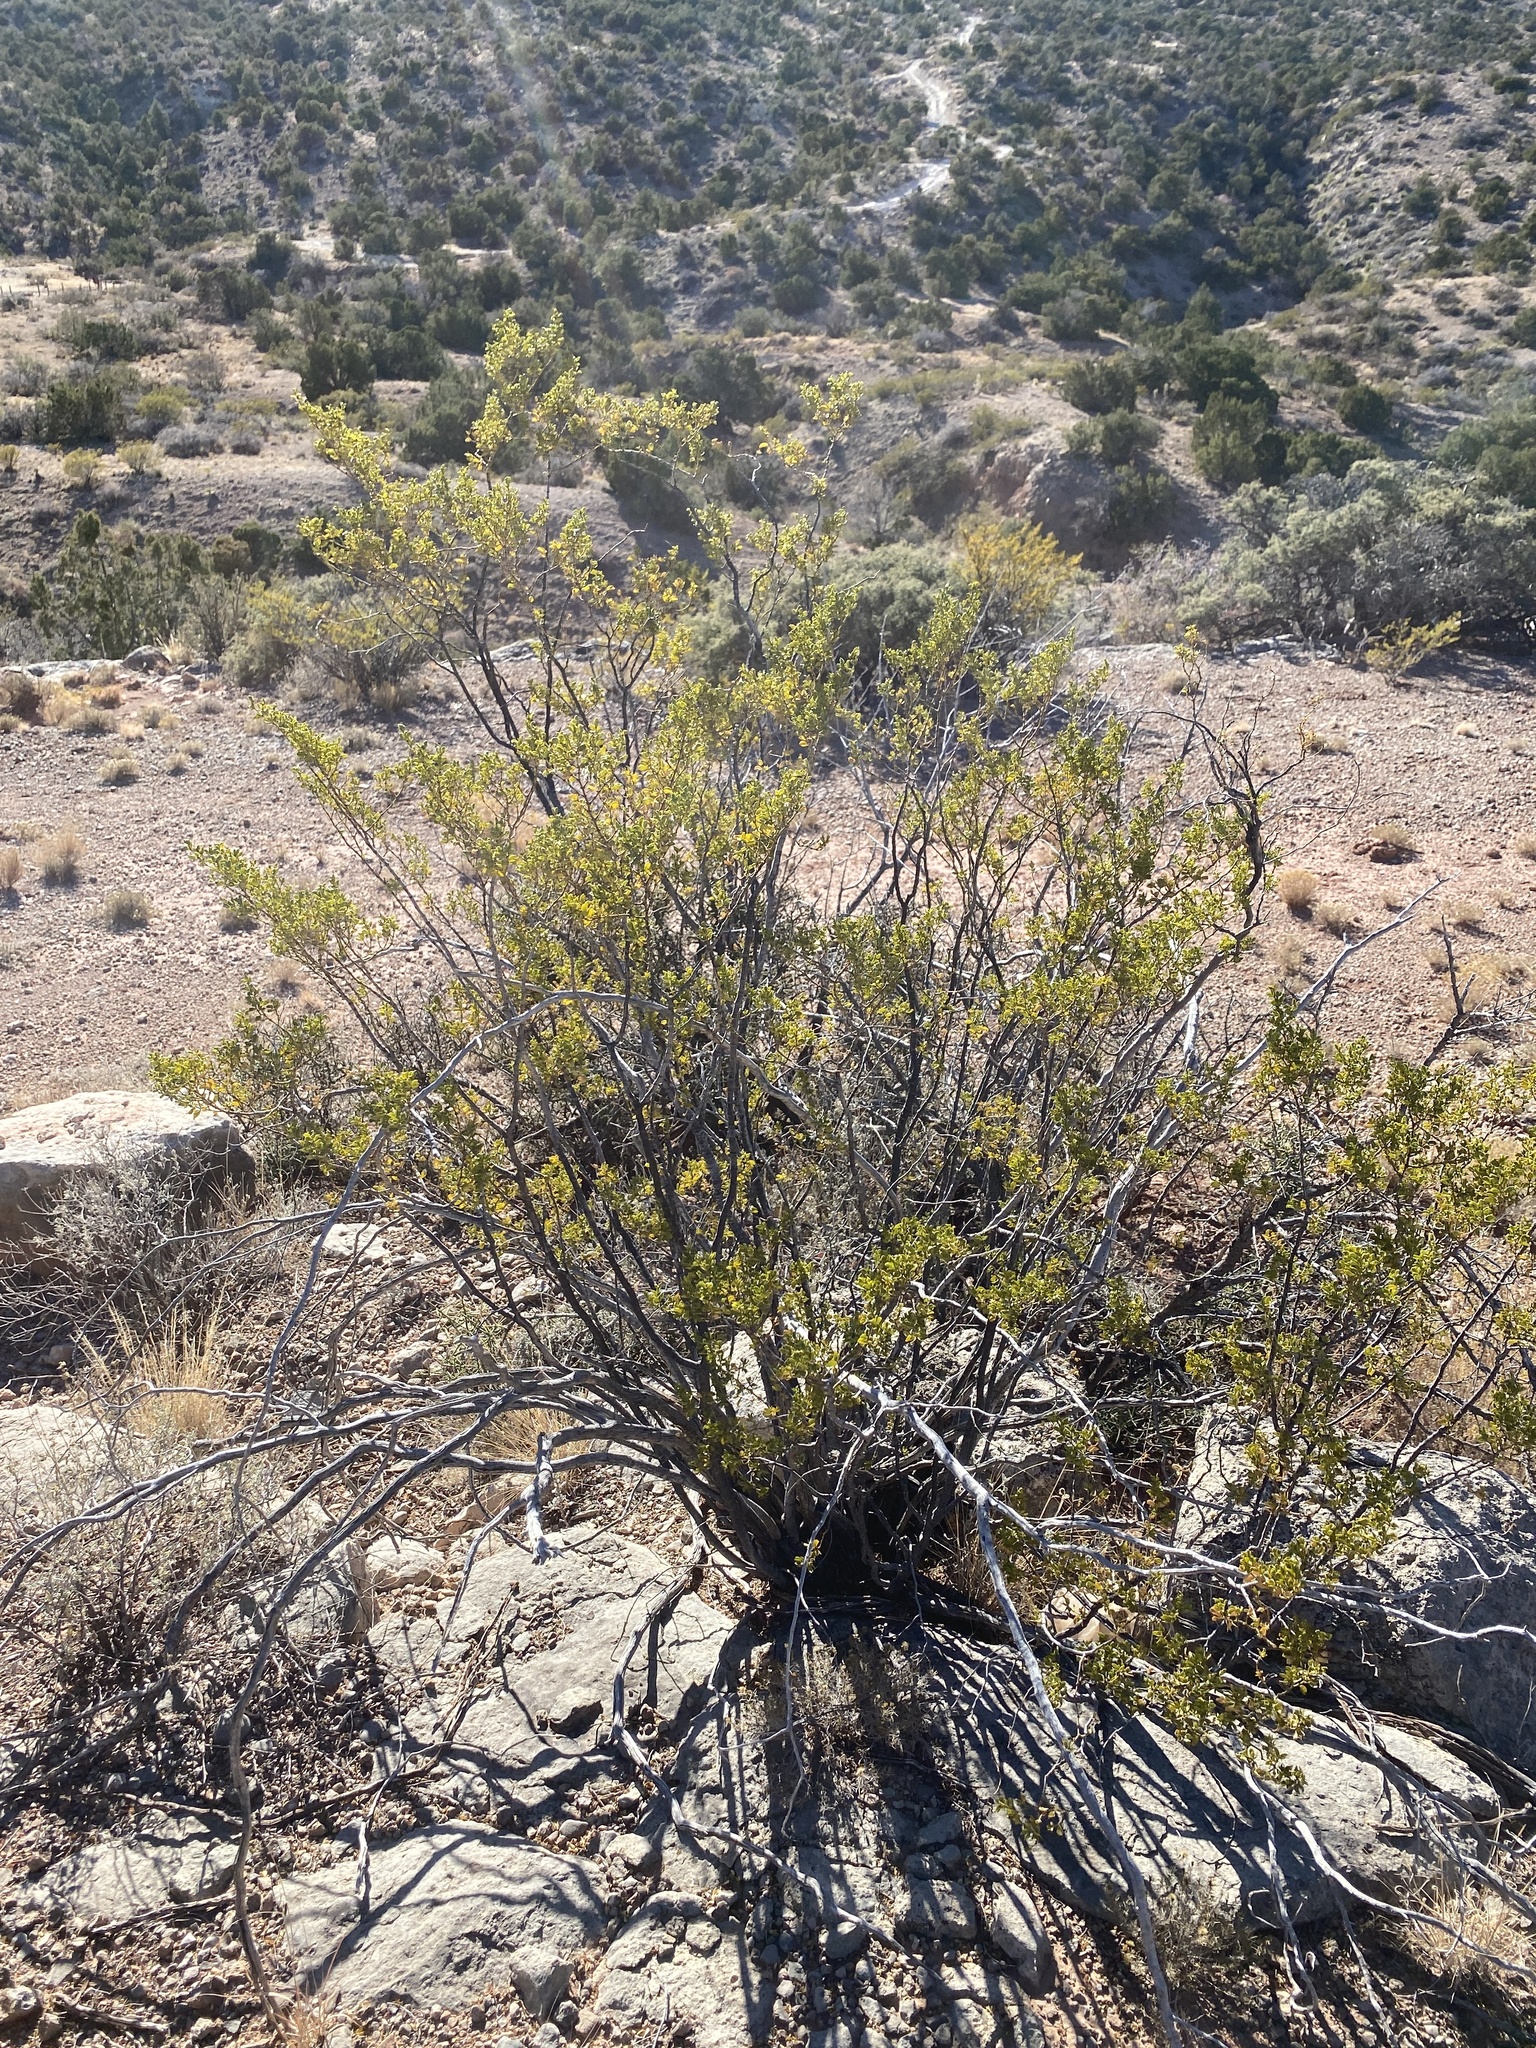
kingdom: Plantae
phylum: Tracheophyta
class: Magnoliopsida
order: Zygophyllales
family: Zygophyllaceae
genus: Larrea
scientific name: Larrea tridentata
